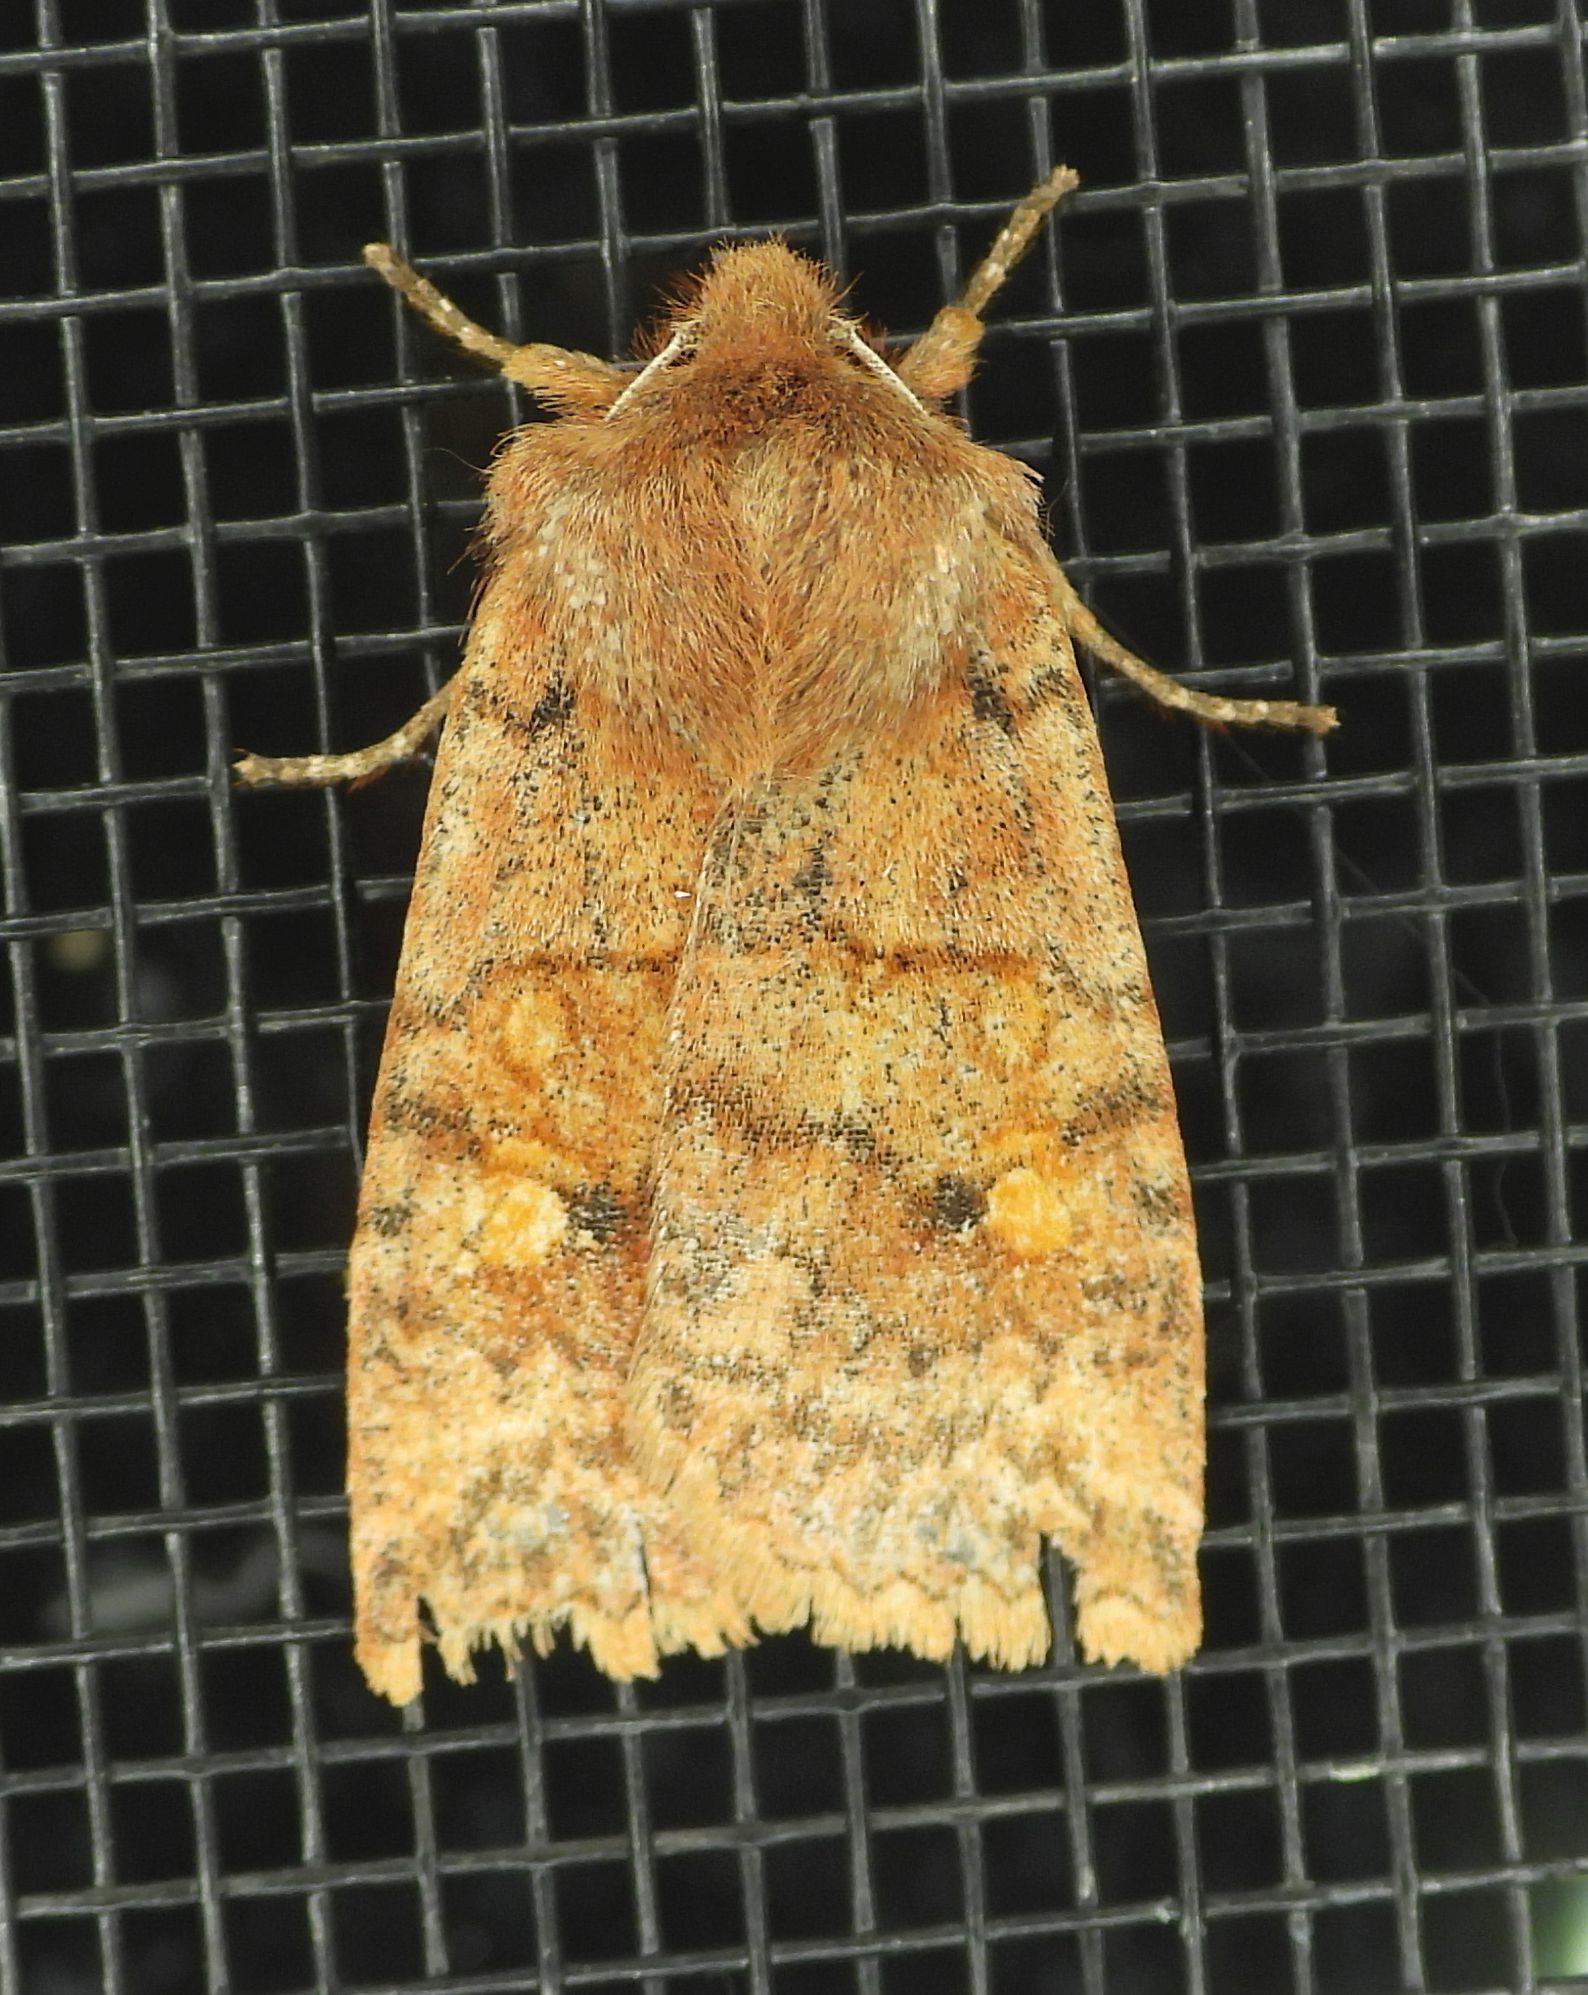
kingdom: Animalia
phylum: Arthropoda
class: Insecta
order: Lepidoptera
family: Noctuidae
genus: Eupsilia
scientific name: Eupsilia tristigmata
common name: Three-spotted sallow
